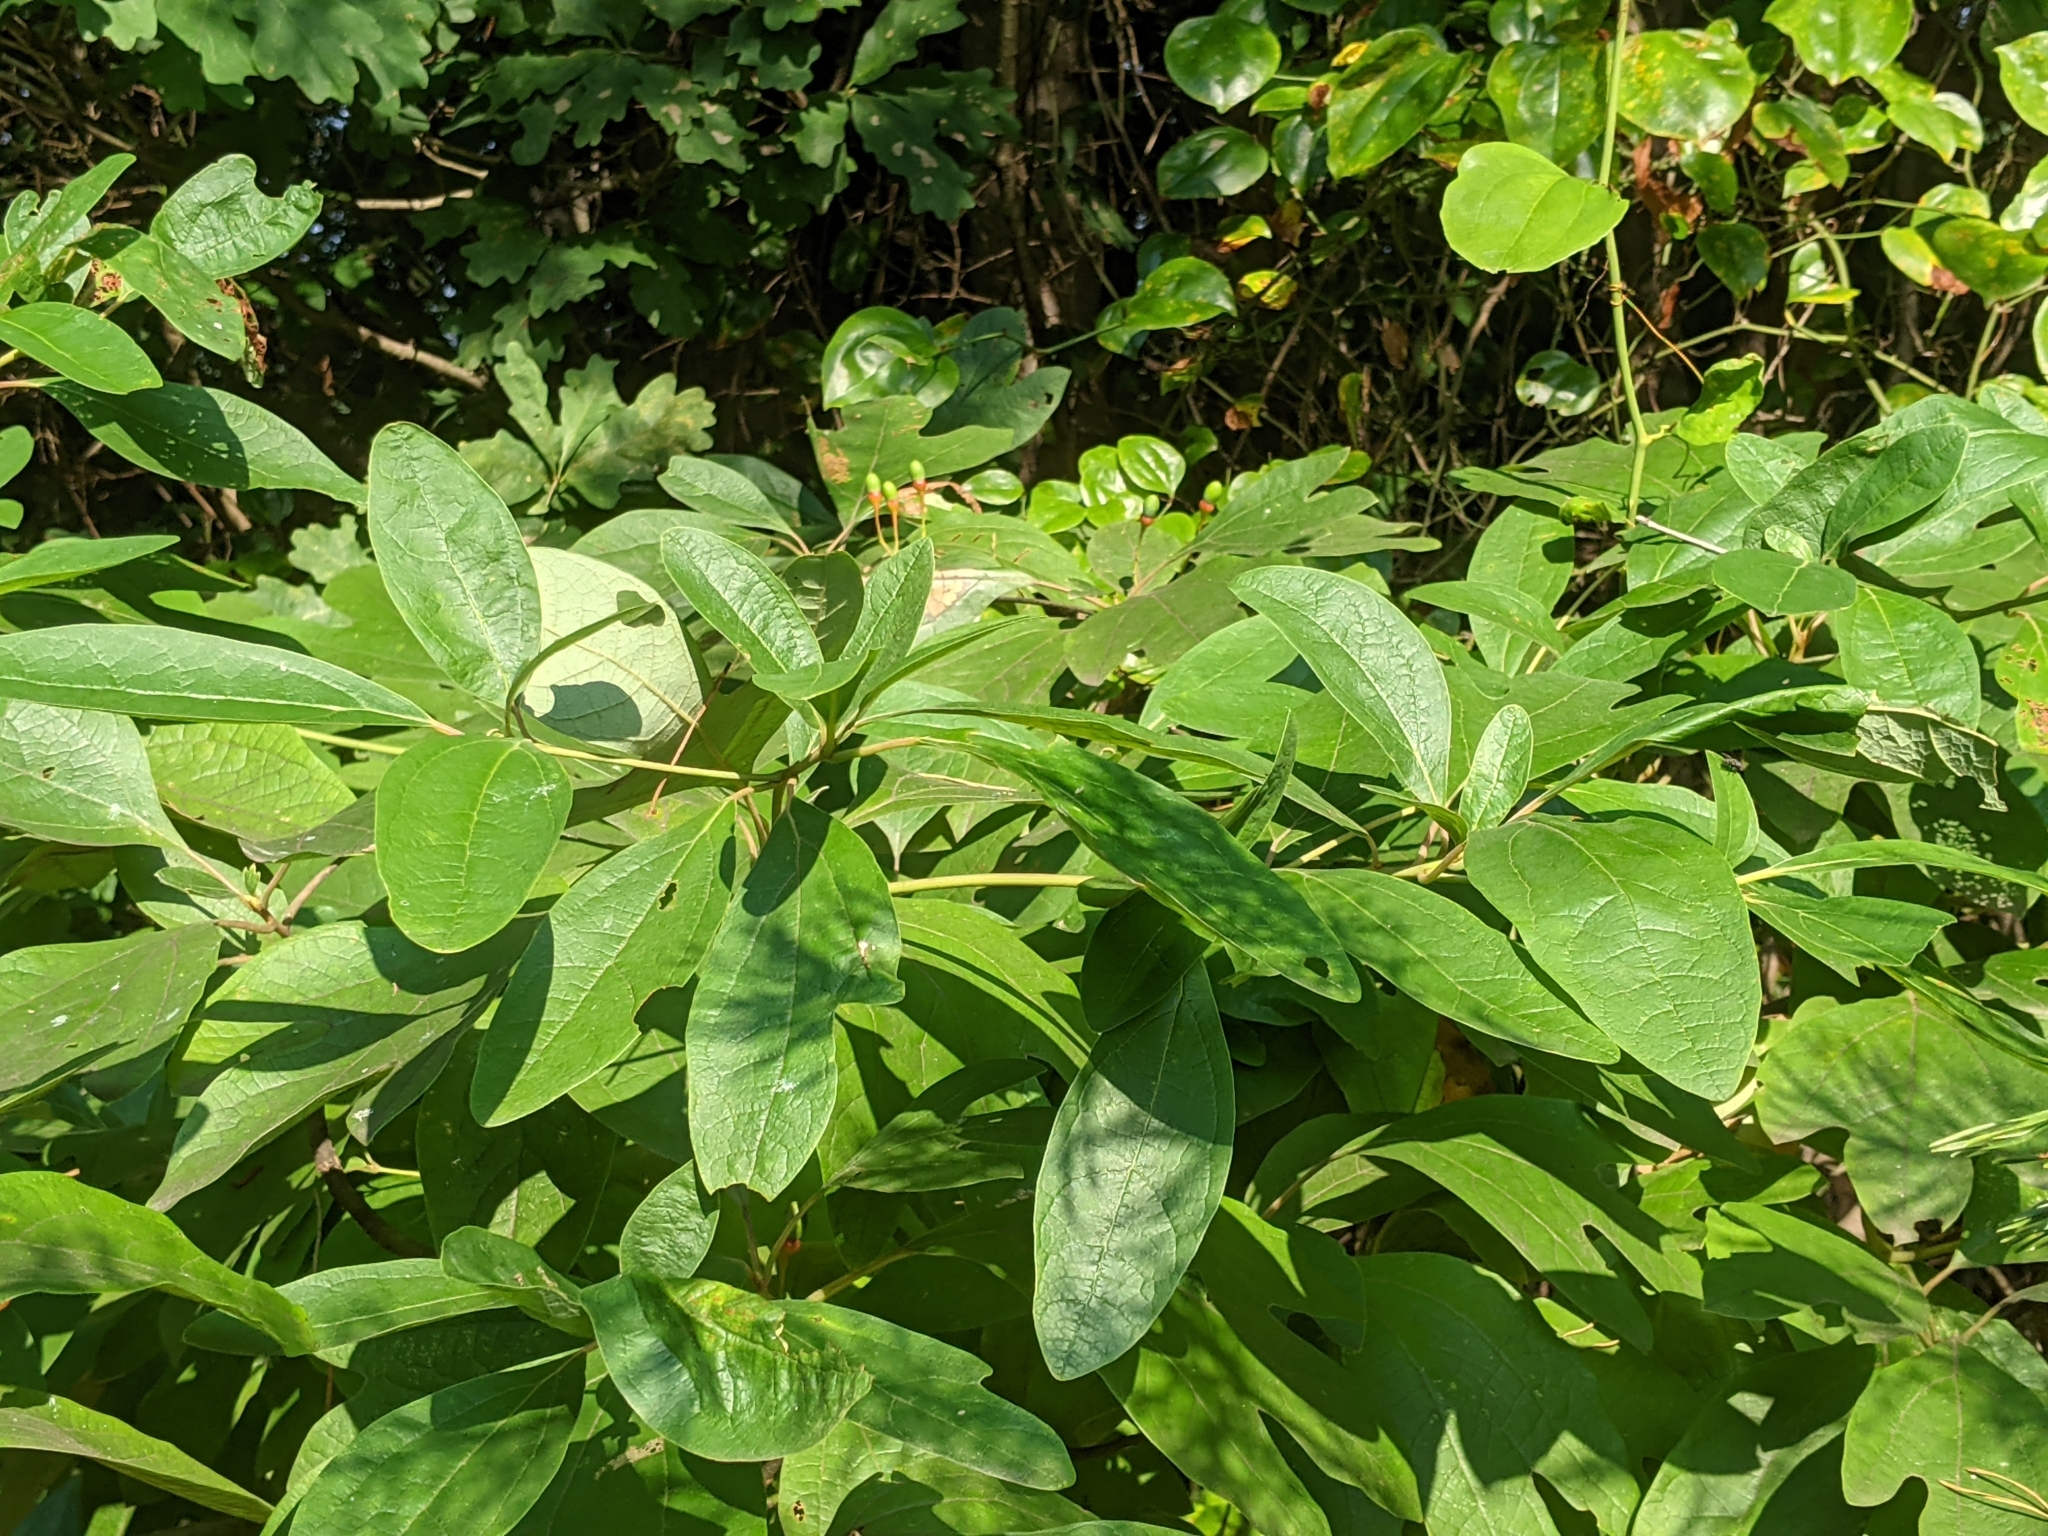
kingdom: Plantae
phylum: Tracheophyta
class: Magnoliopsida
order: Laurales
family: Lauraceae
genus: Sassafras
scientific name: Sassafras albidum
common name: Sassafras
